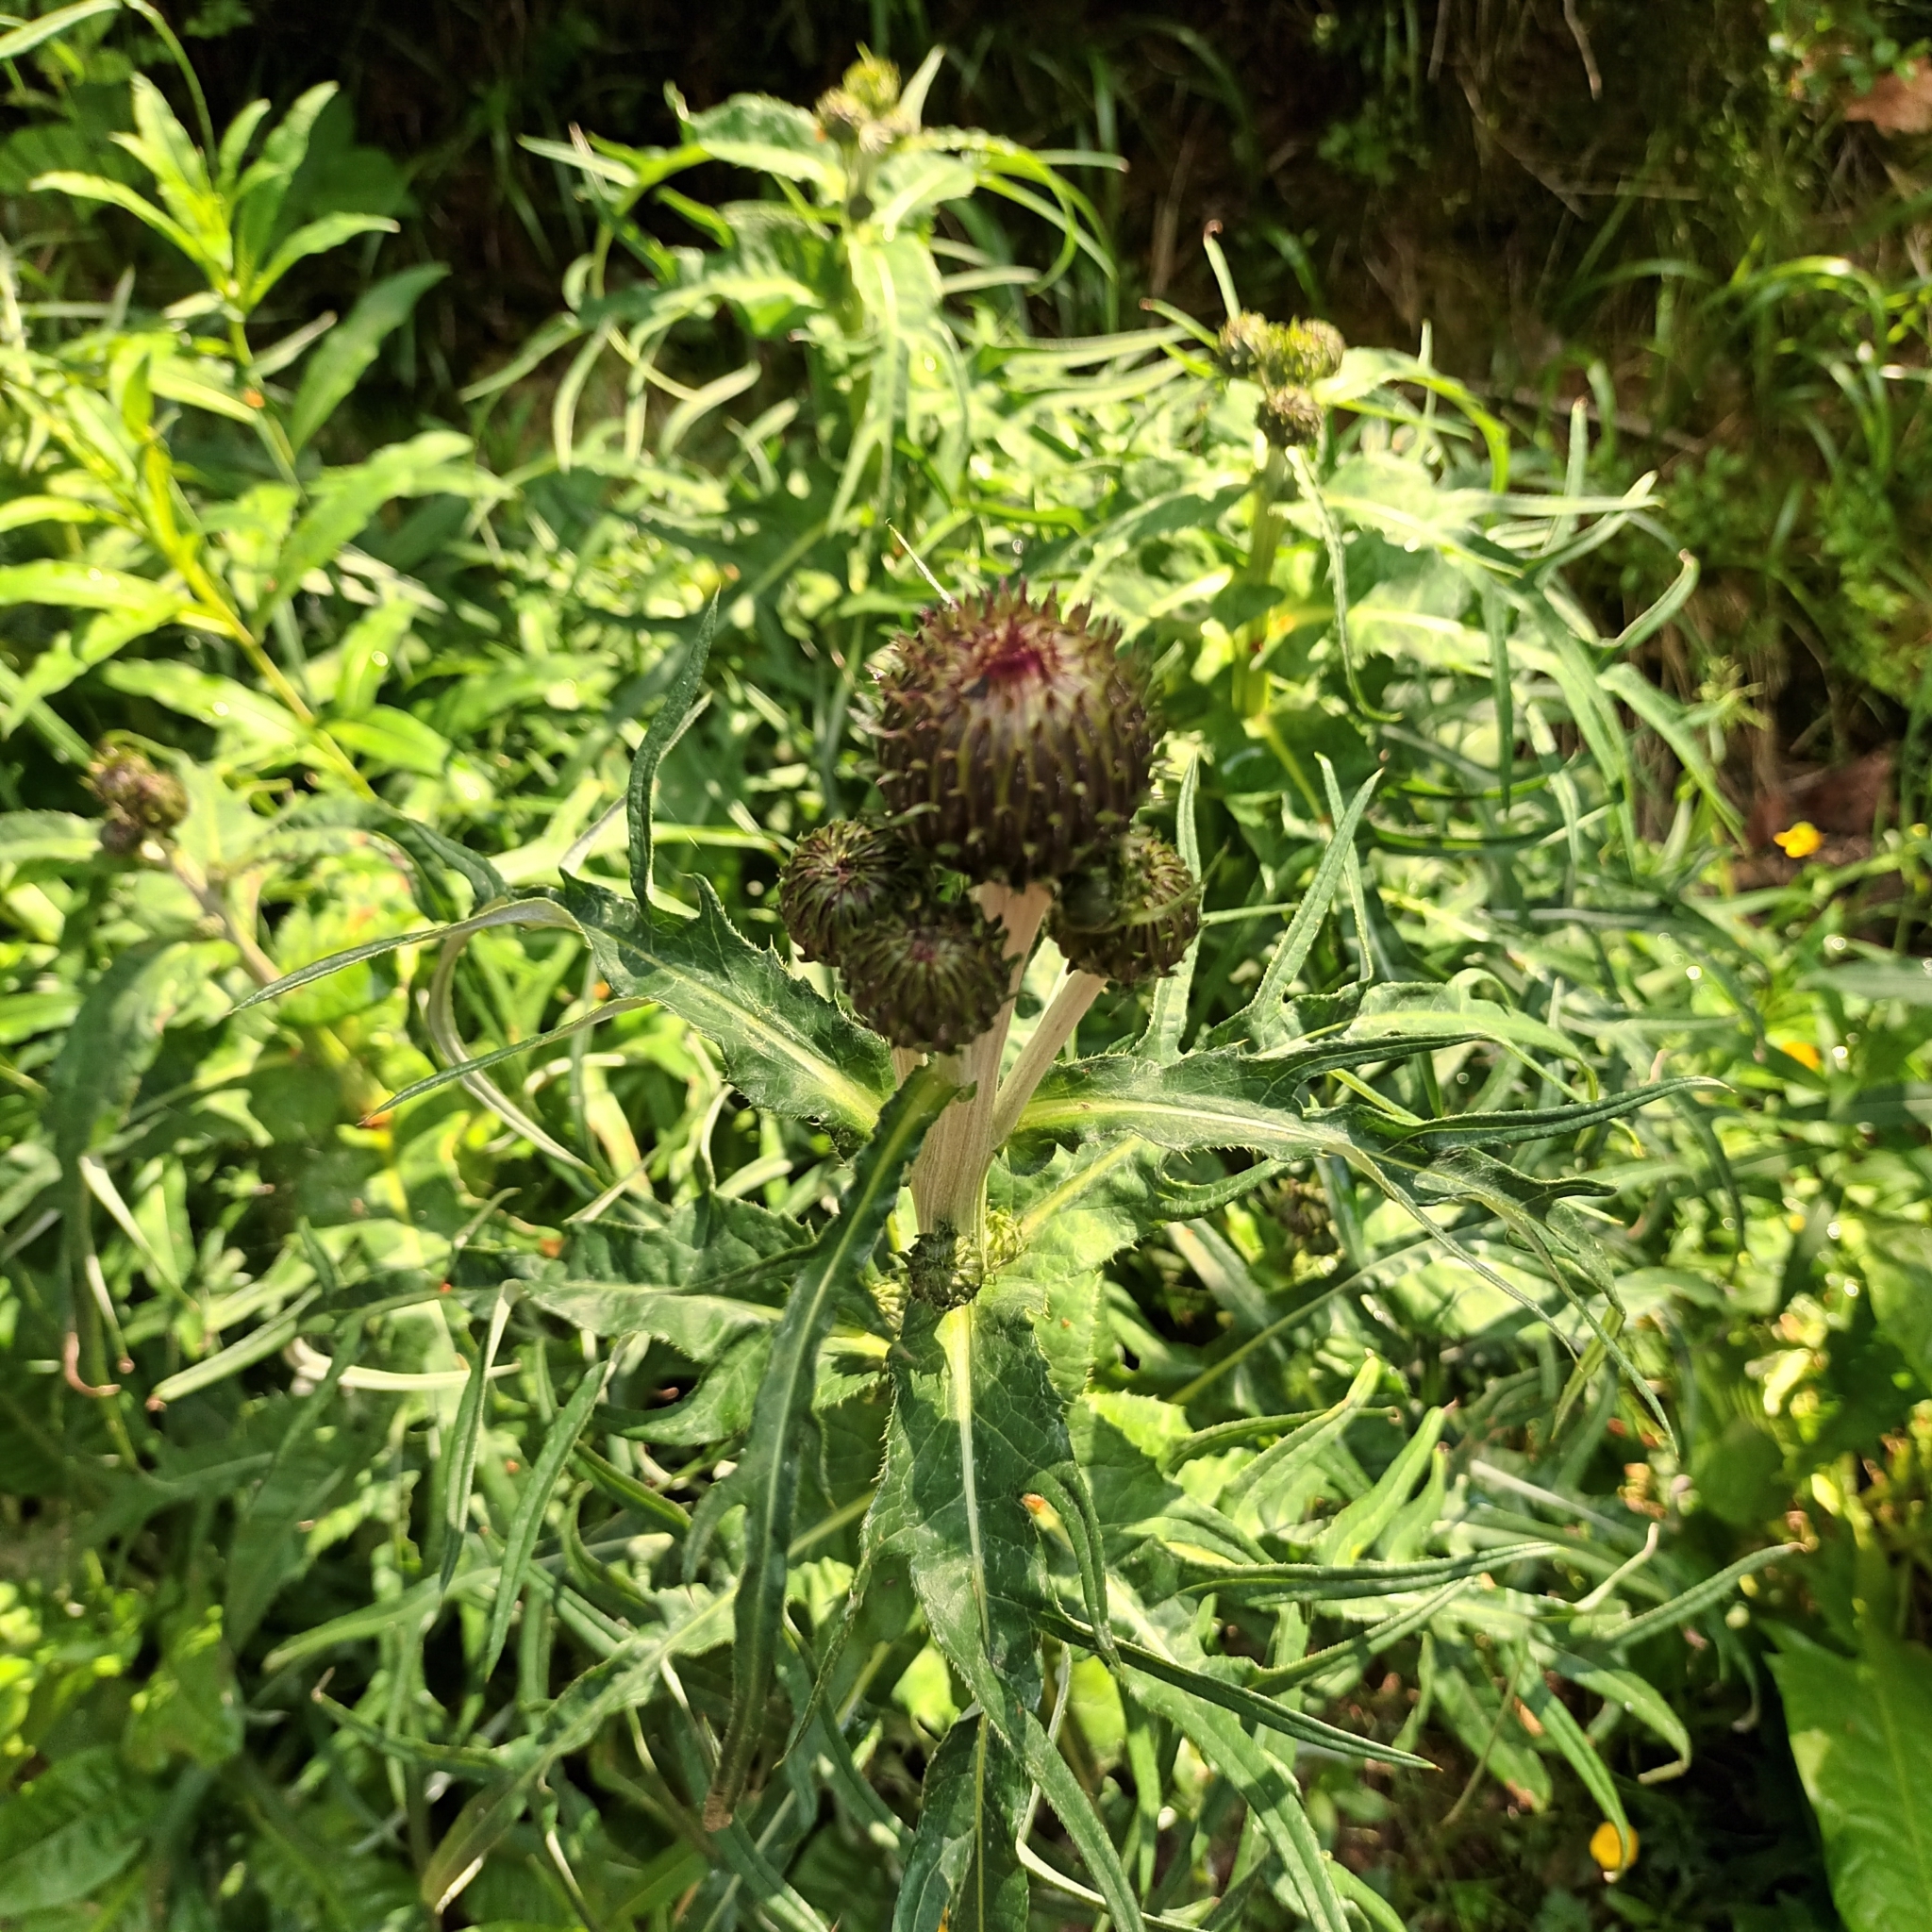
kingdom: Plantae
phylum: Tracheophyta
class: Magnoliopsida
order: Asterales
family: Asteraceae
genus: Cirsium
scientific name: Cirsium heterophyllum
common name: Melancholy thistle
